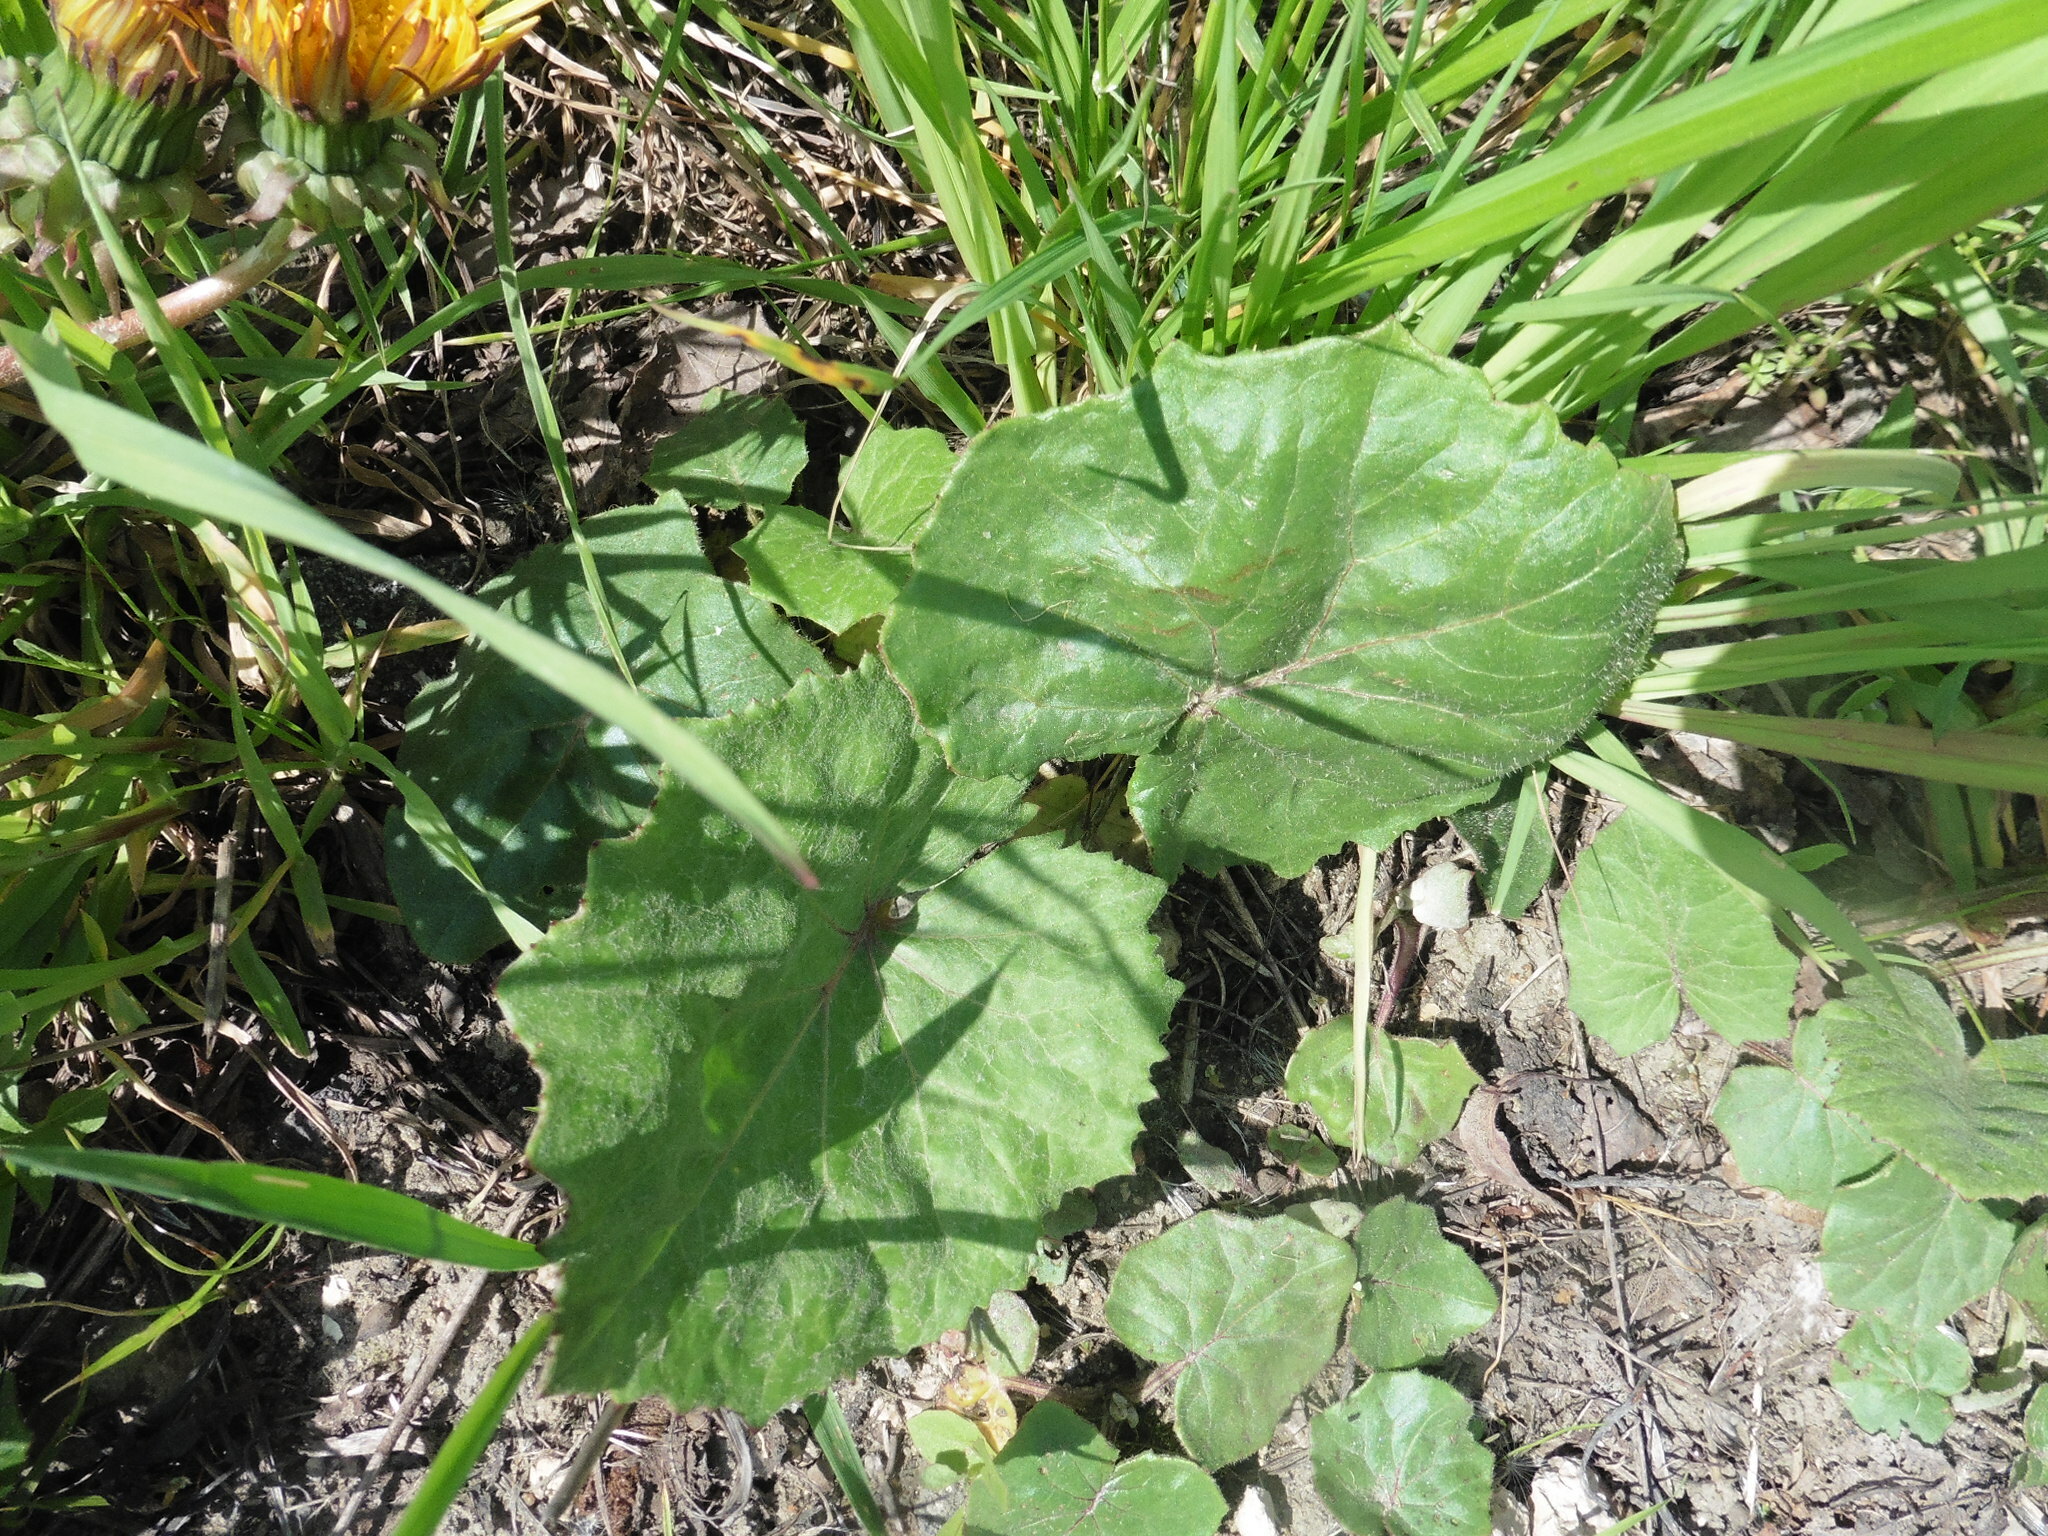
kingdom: Plantae
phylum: Tracheophyta
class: Magnoliopsida
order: Asterales
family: Asteraceae
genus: Tussilago
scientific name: Tussilago farfara
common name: Coltsfoot
